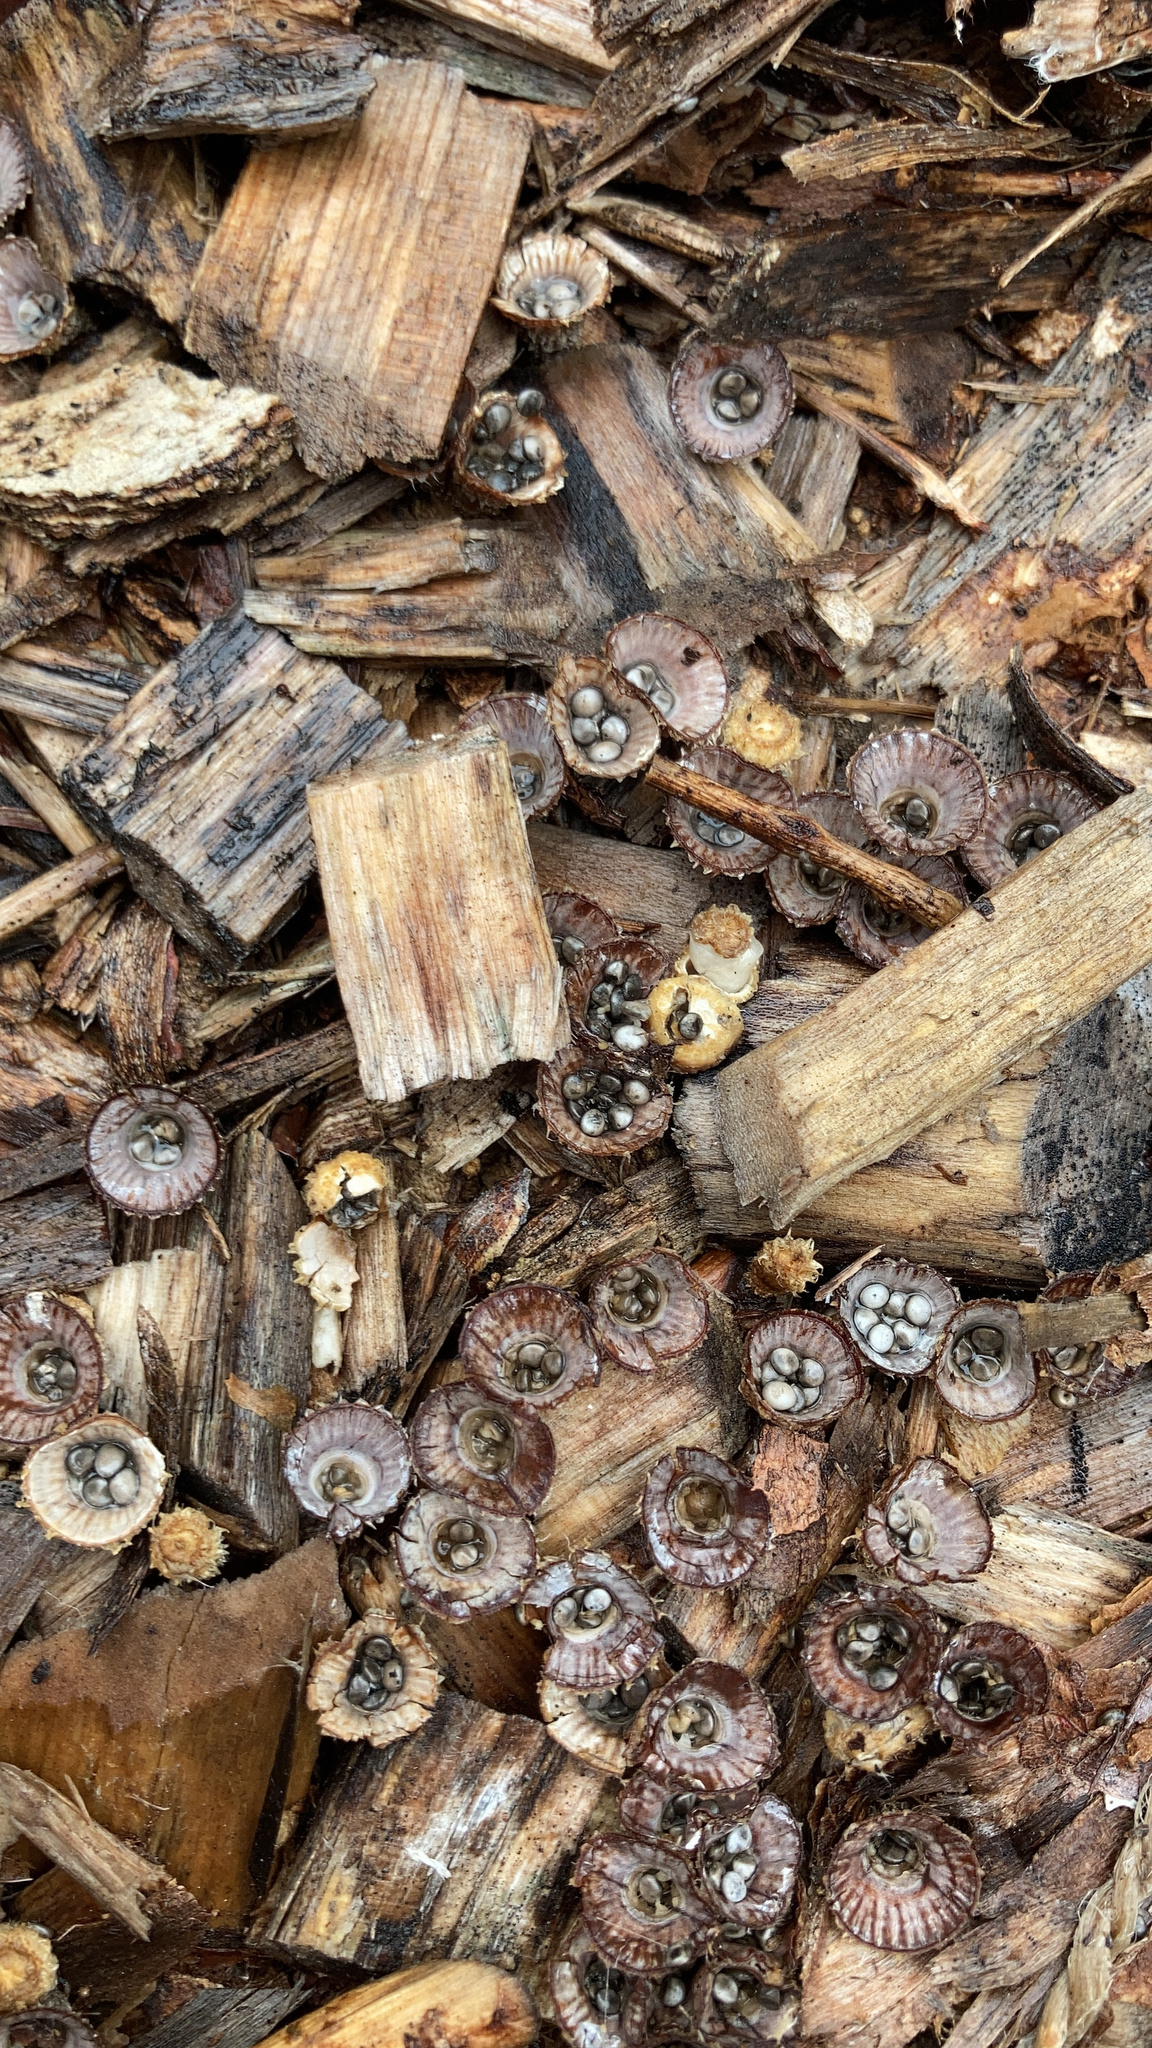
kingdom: Fungi
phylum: Basidiomycota
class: Agaricomycetes
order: Agaricales
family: Agaricaceae
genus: Cyathus
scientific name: Cyathus striatus
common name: Fluted bird's nest
